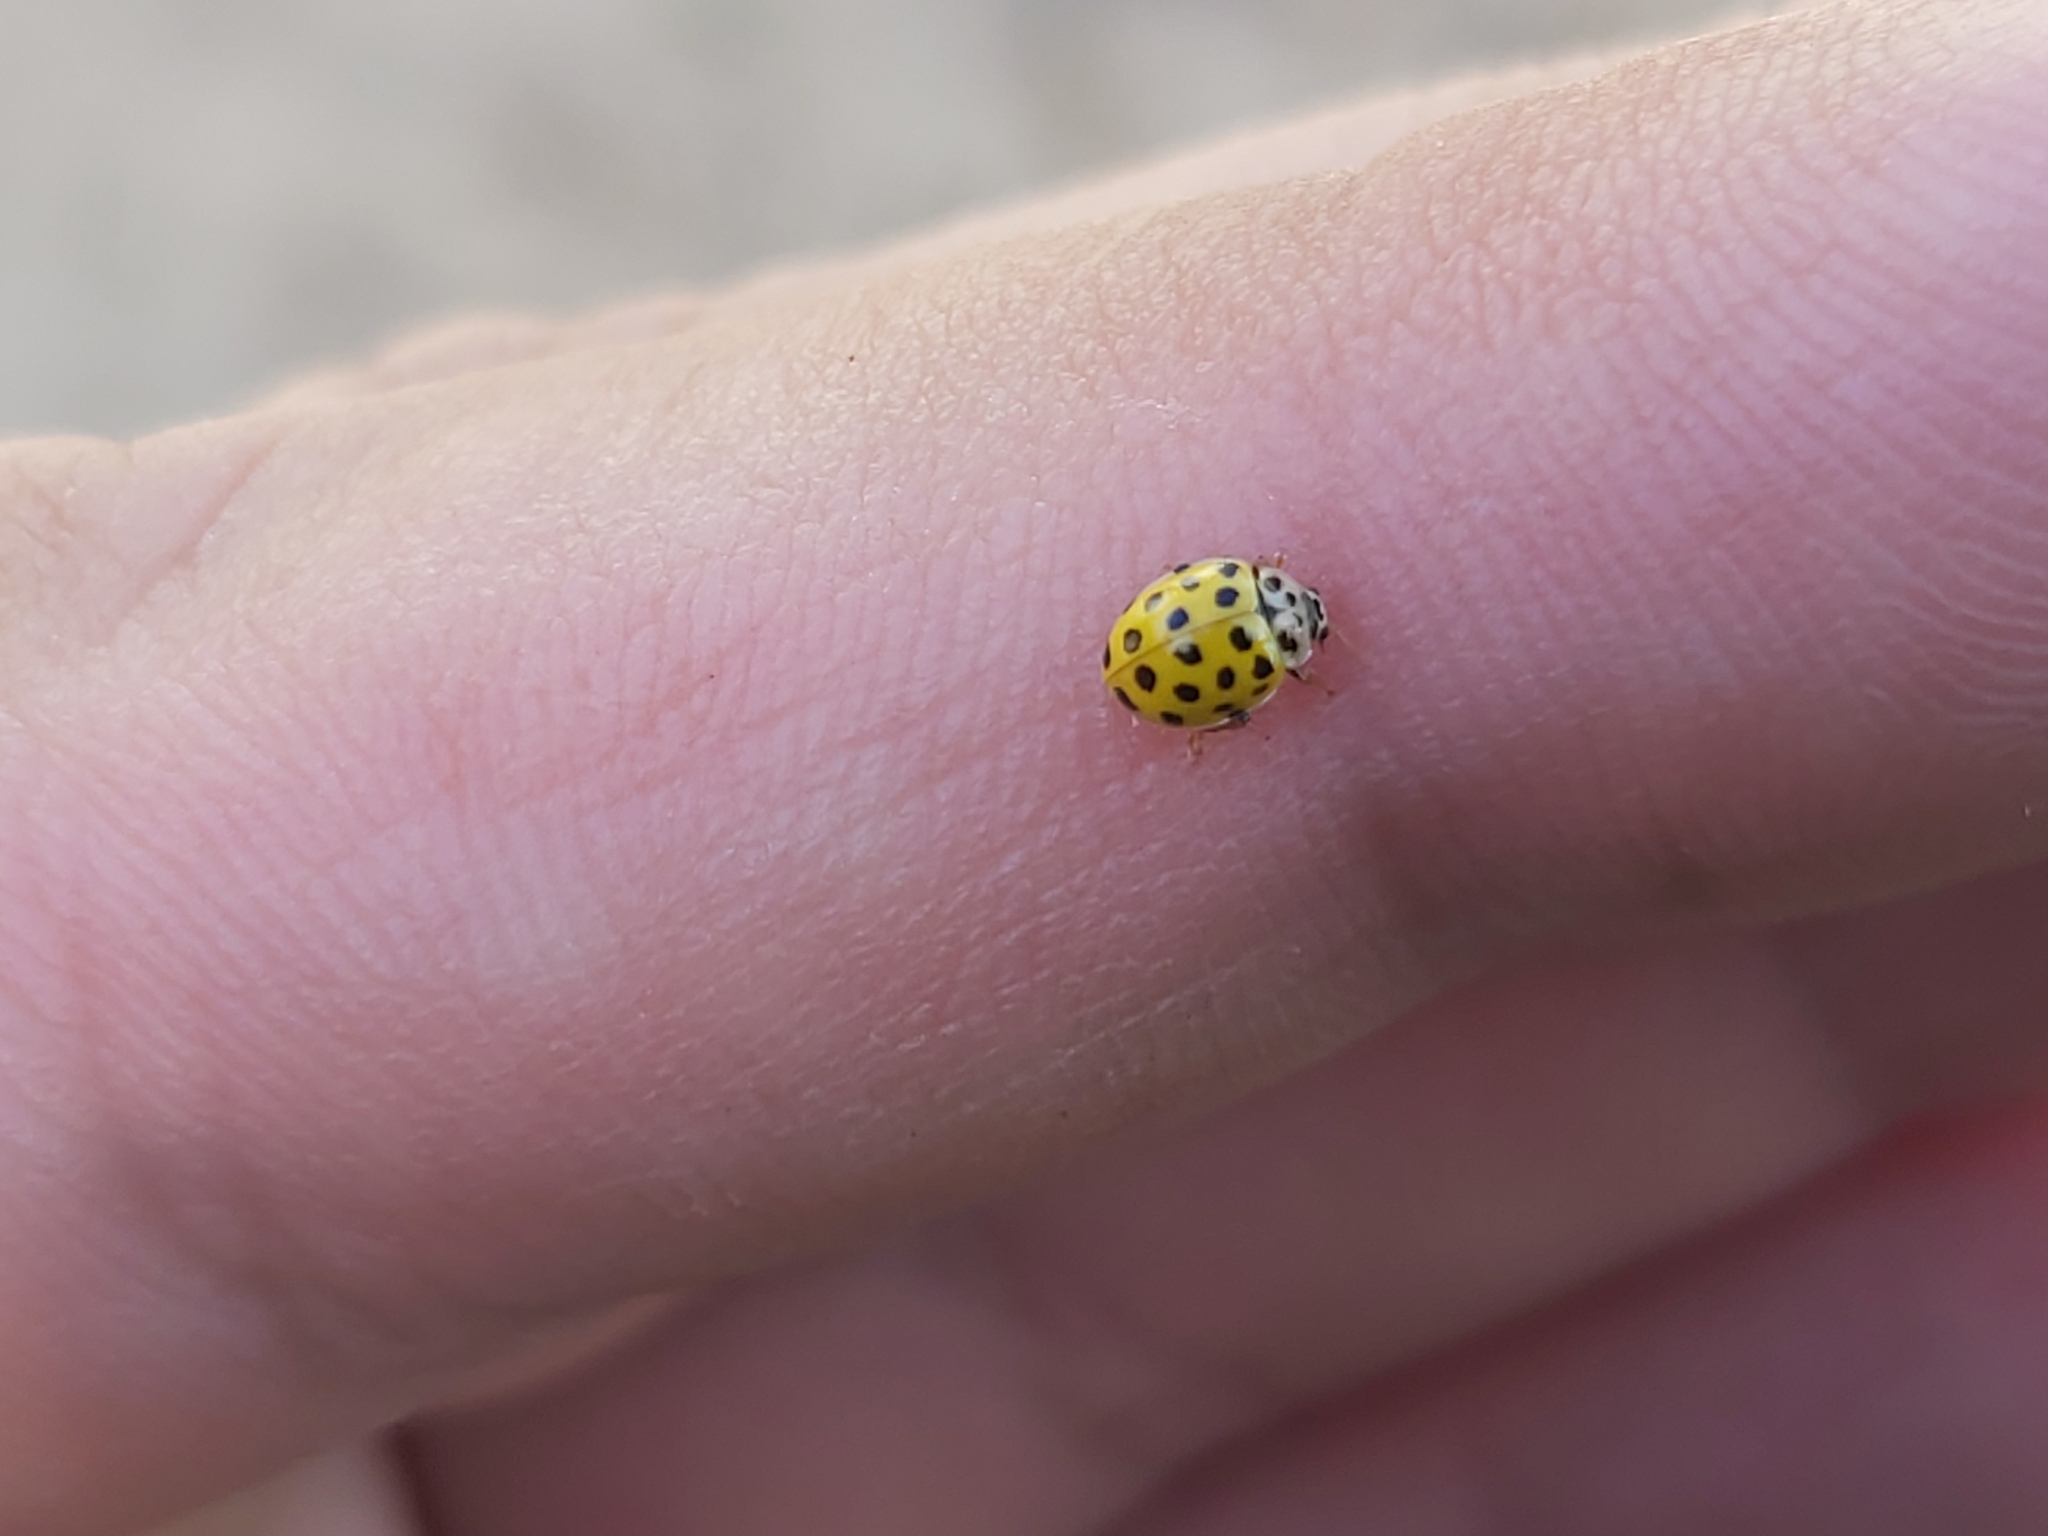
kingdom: Animalia
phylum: Arthropoda
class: Insecta
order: Coleoptera
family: Coccinellidae
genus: Psyllobora
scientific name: Psyllobora vigintiduopunctata
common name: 22-spot ladybird
